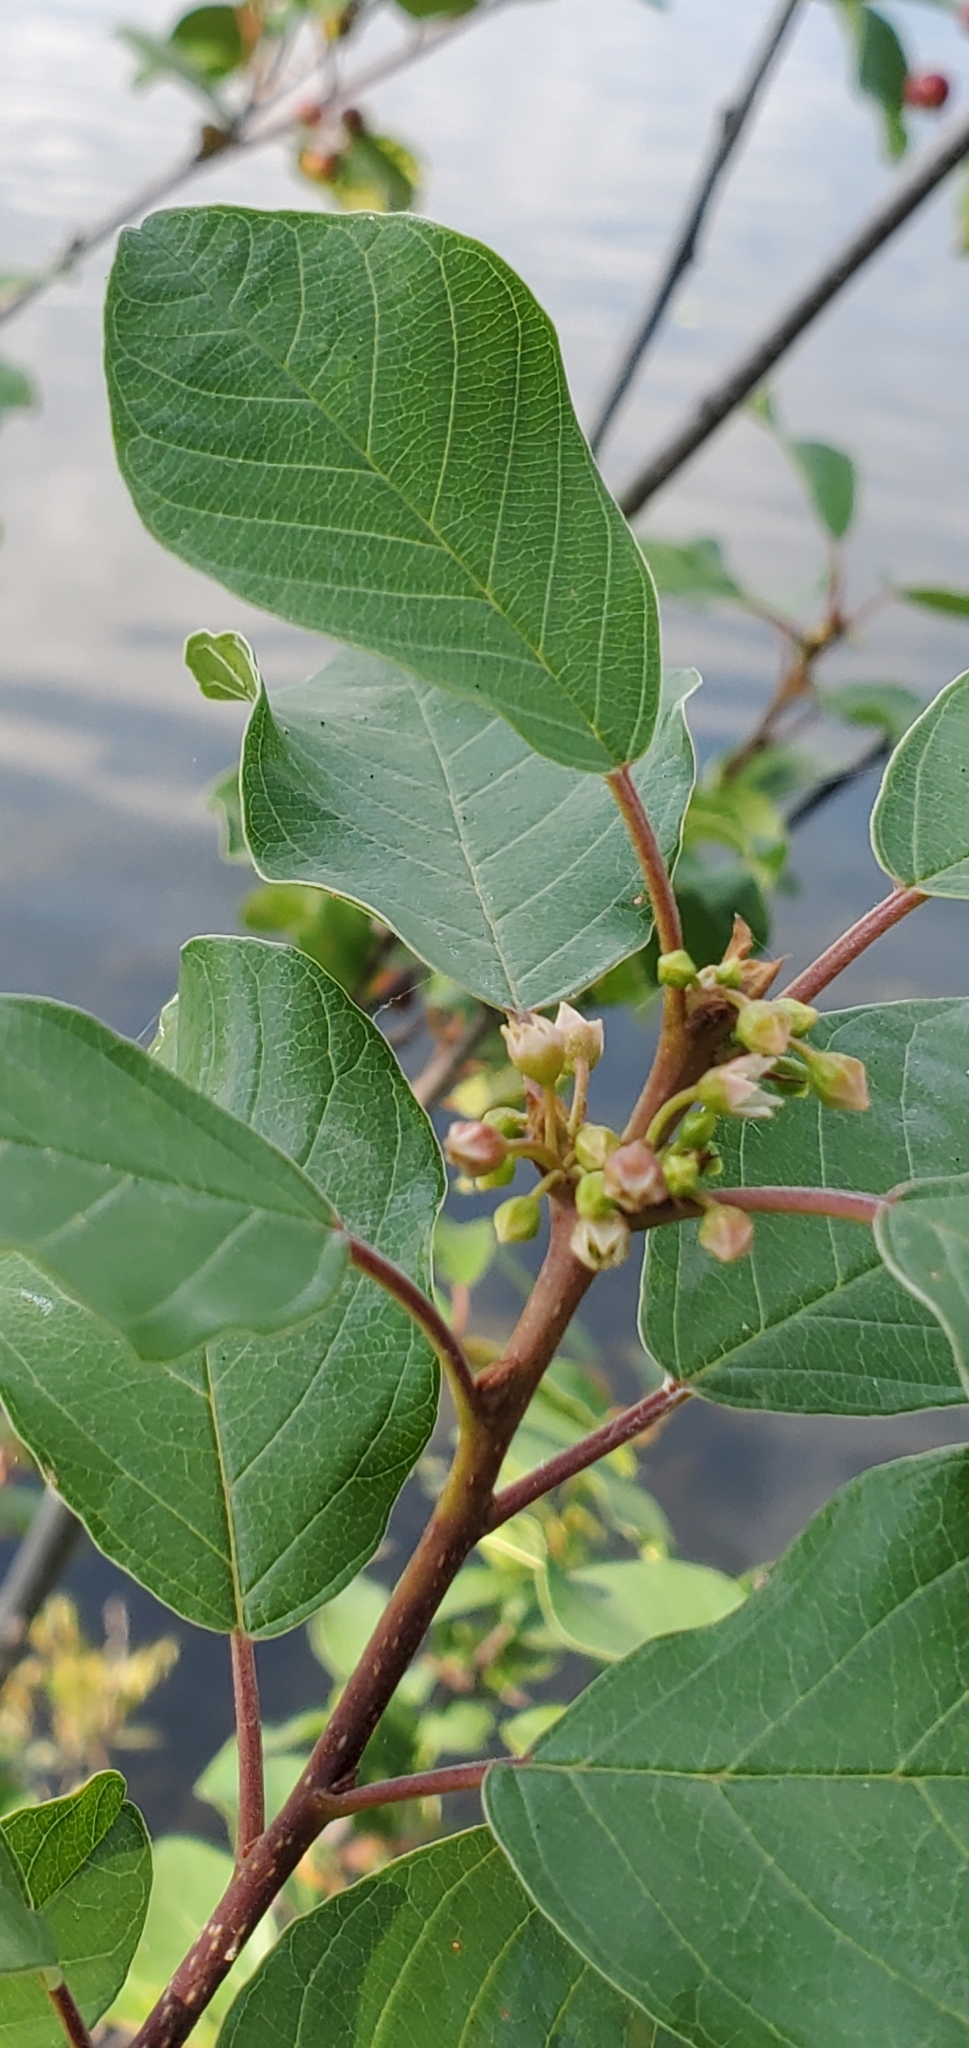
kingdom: Plantae
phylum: Tracheophyta
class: Magnoliopsida
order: Rosales
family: Rhamnaceae
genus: Frangula
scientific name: Frangula alnus
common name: Alder buckthorn
